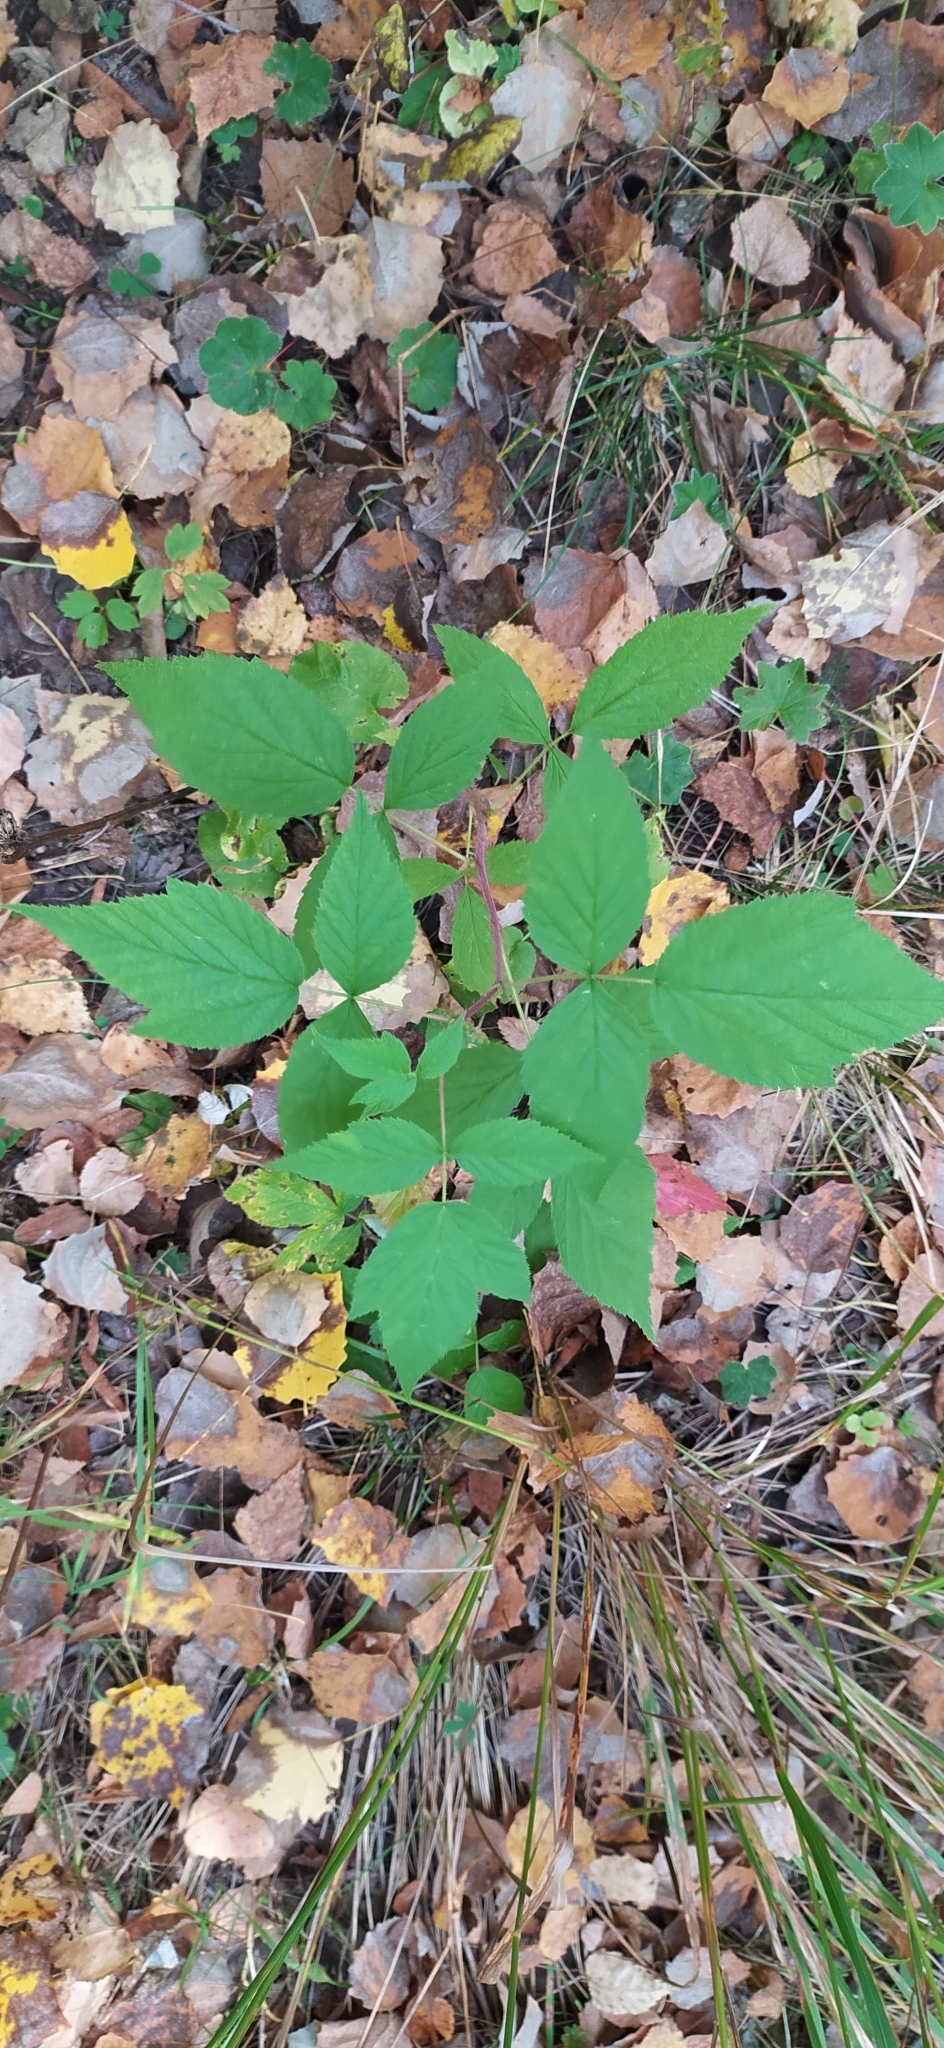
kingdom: Plantae
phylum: Tracheophyta
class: Magnoliopsida
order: Rosales
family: Rosaceae
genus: Rubus
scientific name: Rubus idaeus
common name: Raspberry
